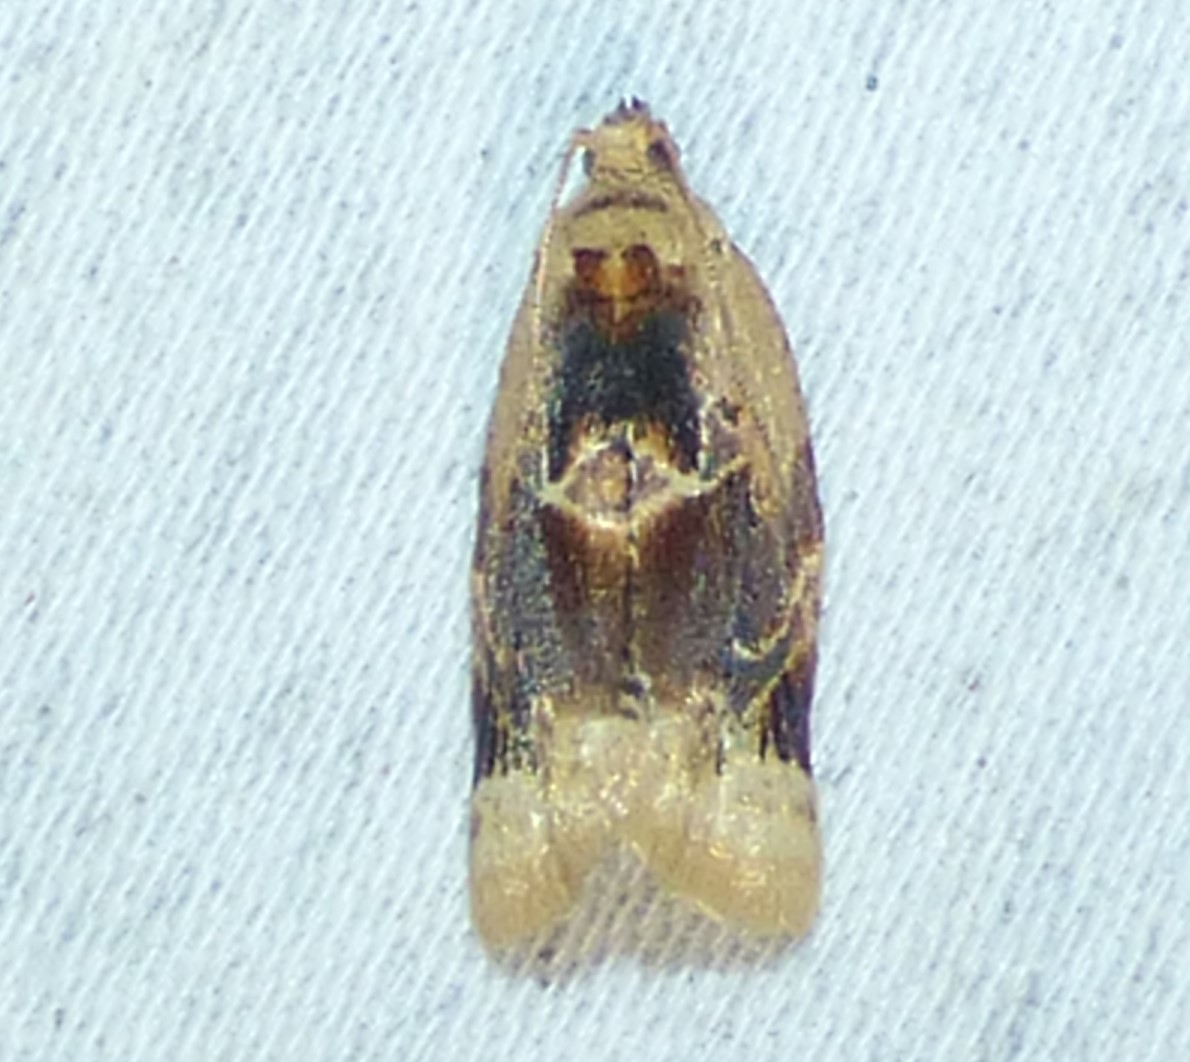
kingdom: Animalia
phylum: Arthropoda
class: Insecta
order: Lepidoptera
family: Tortricidae
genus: Argyrotaenia
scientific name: Argyrotaenia velutinana
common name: Red-banded leafroller moth
